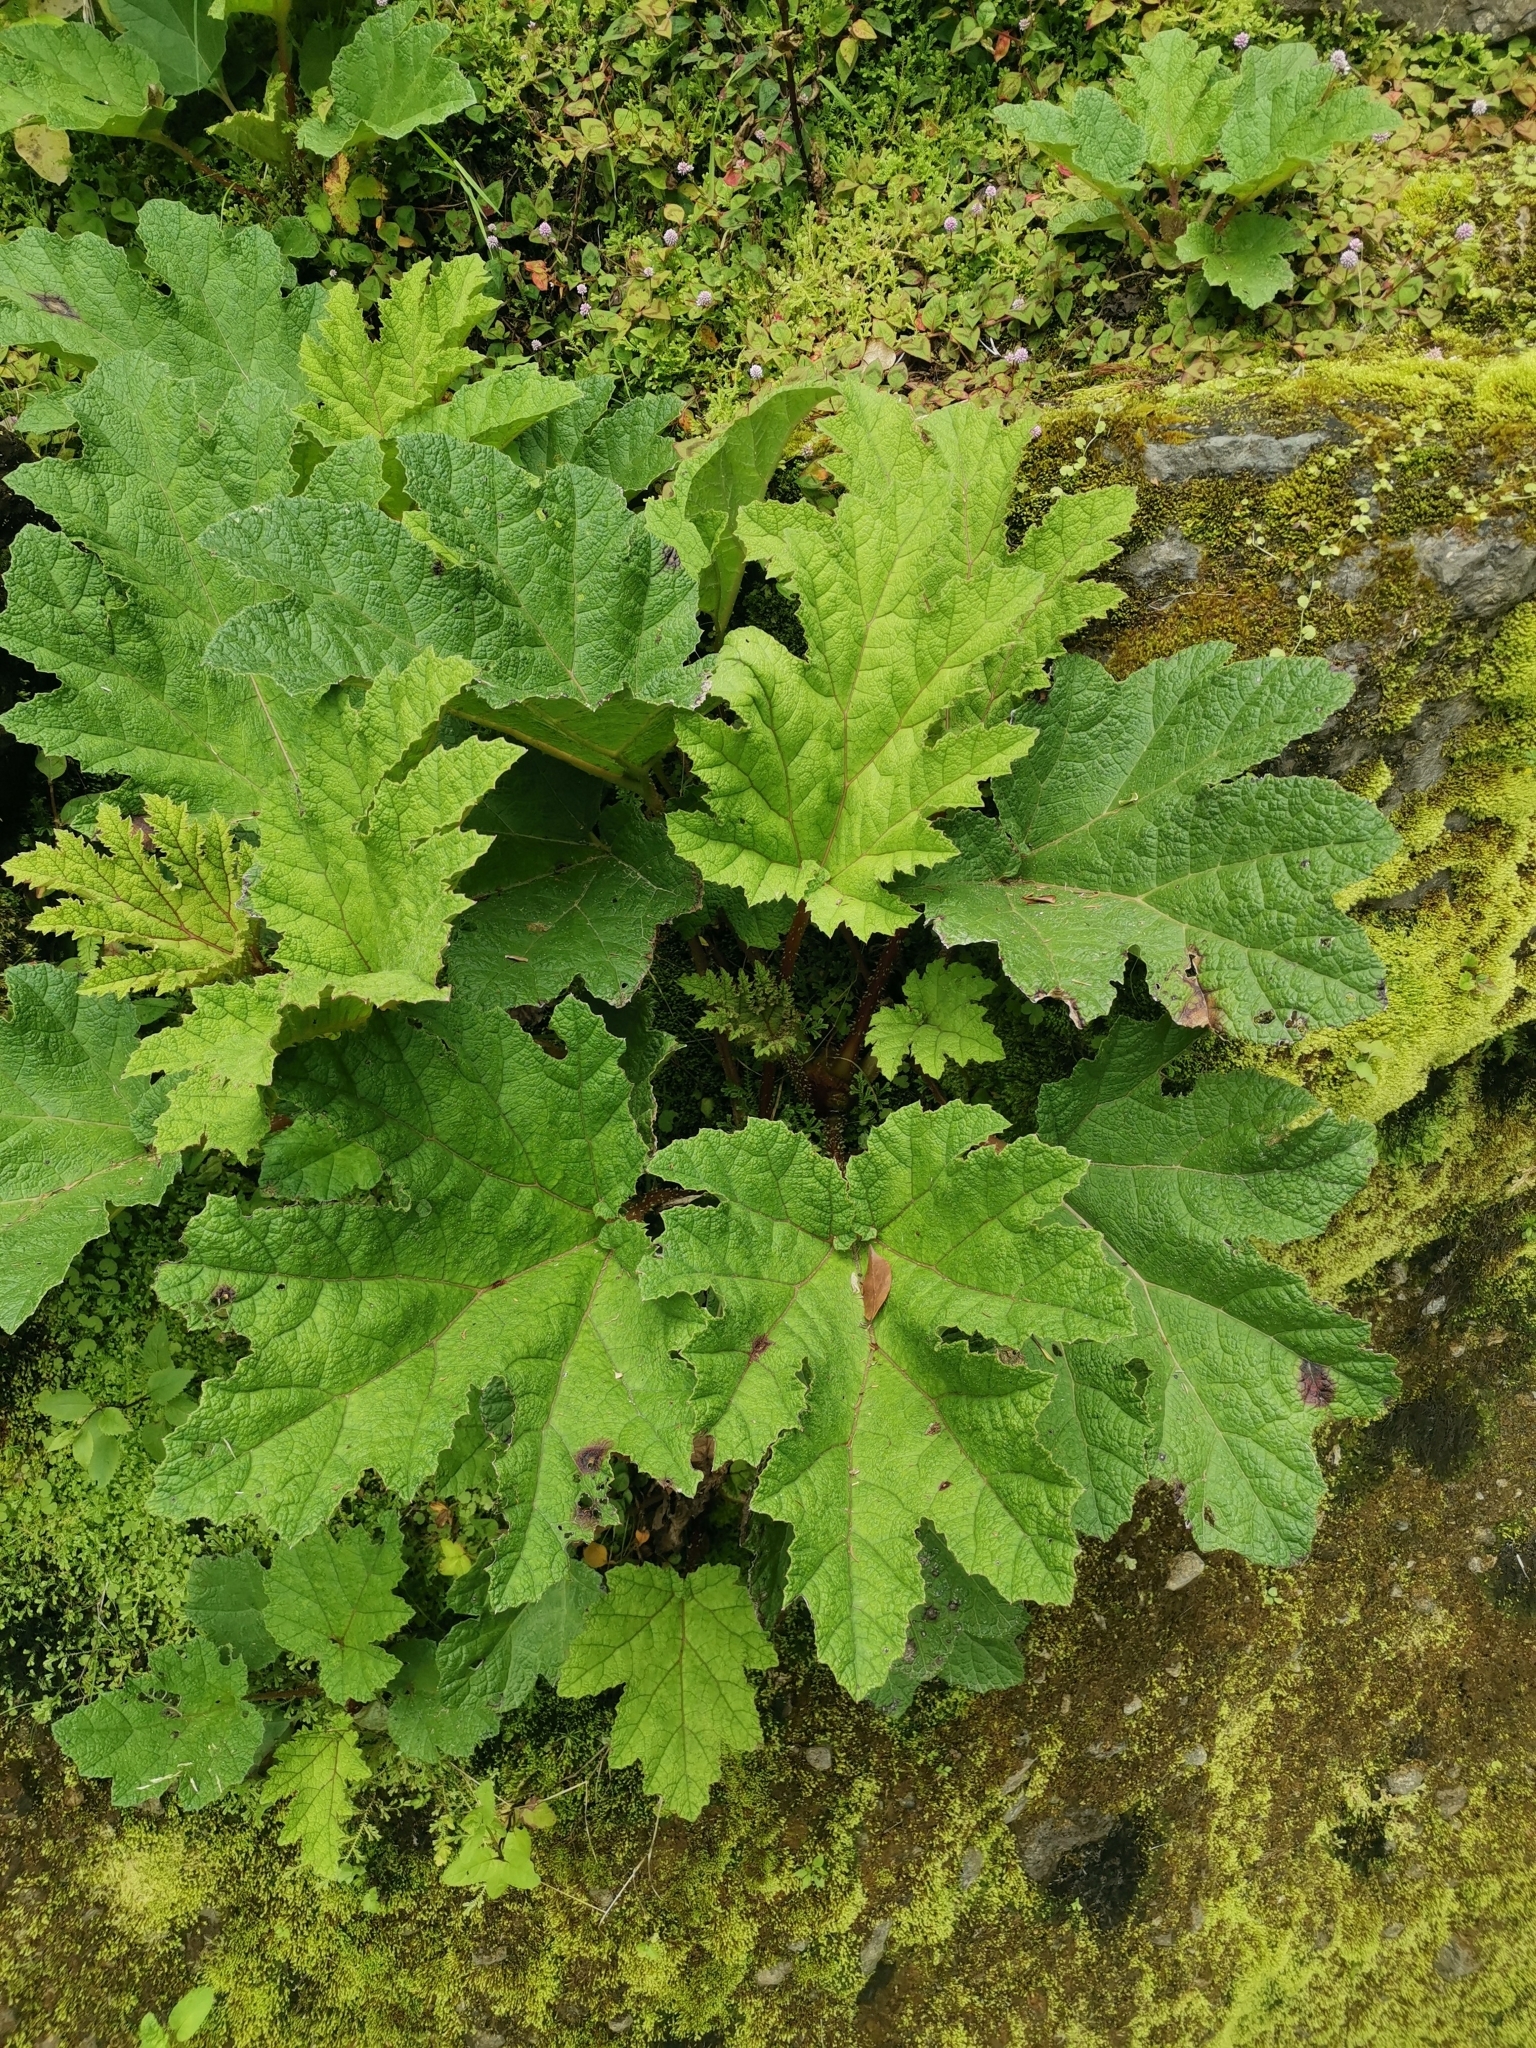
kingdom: Plantae
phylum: Tracheophyta
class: Magnoliopsida
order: Gunnerales
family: Gunneraceae
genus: Gunnera
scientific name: Gunnera tinctoria
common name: Giant-rhubarb
